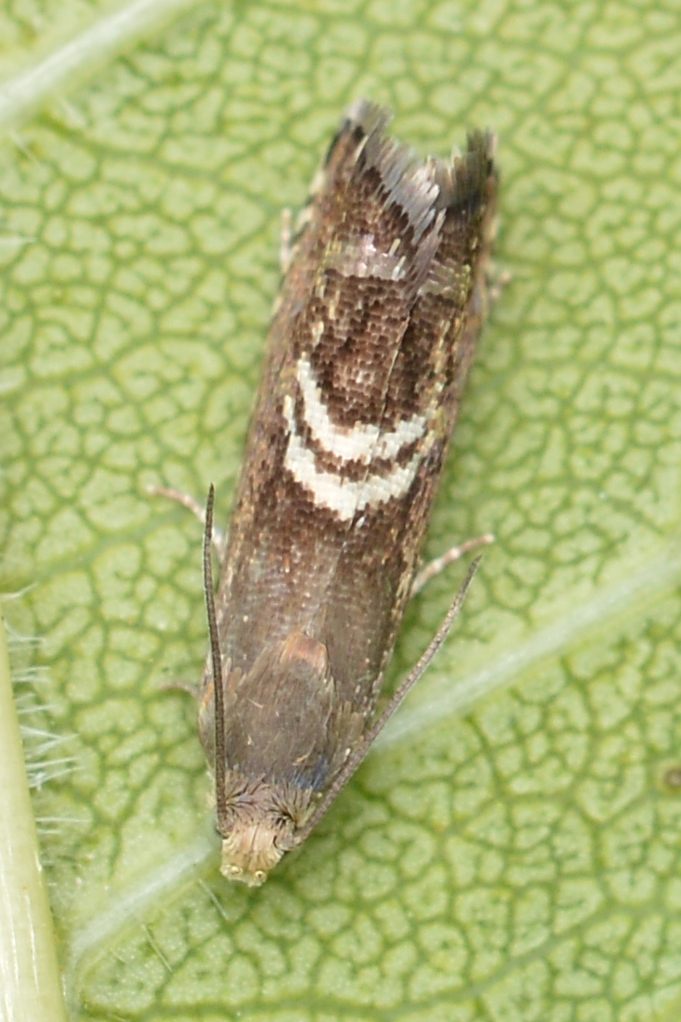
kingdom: Animalia
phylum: Arthropoda
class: Insecta
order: Lepidoptera
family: Tortricidae
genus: Grapholita
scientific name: Grapholita interstinctana
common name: Clover head caterpillar moth
